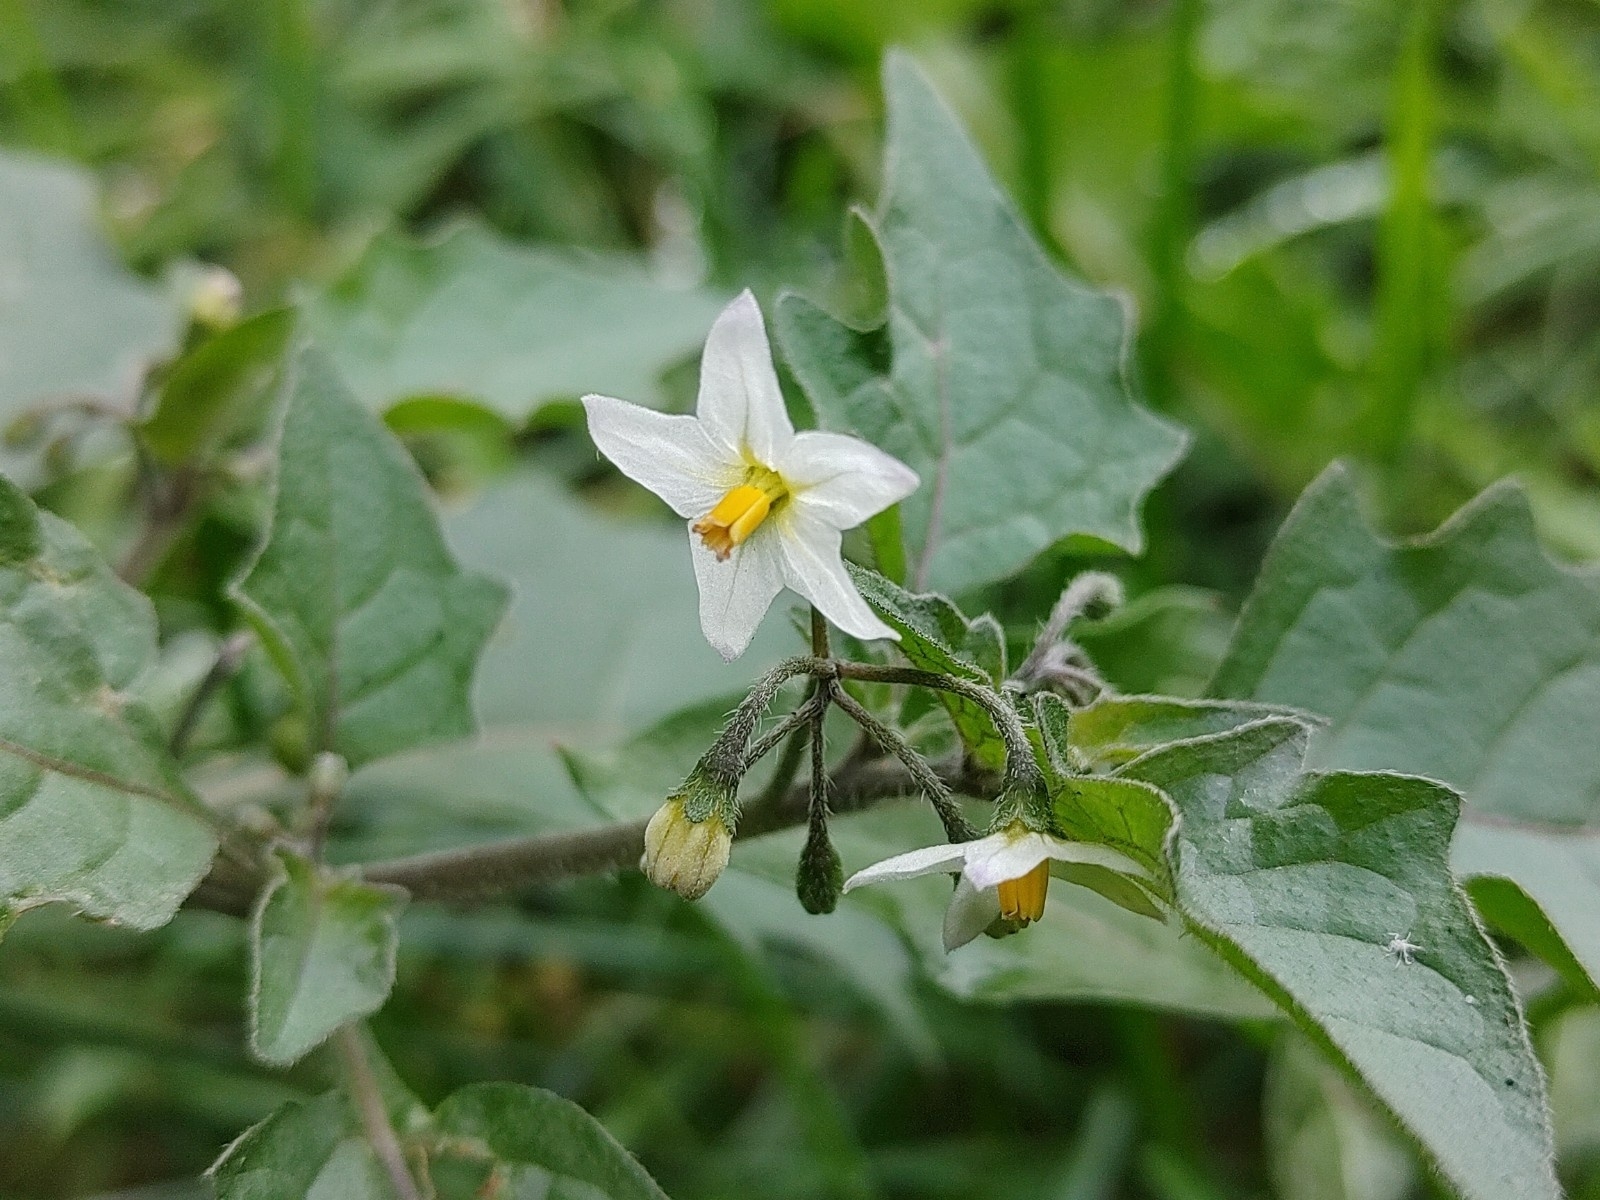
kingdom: Plantae
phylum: Tracheophyta
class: Magnoliopsida
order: Solanales
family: Solanaceae
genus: Solanum
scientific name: Solanum nigrum
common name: Black nightshade
